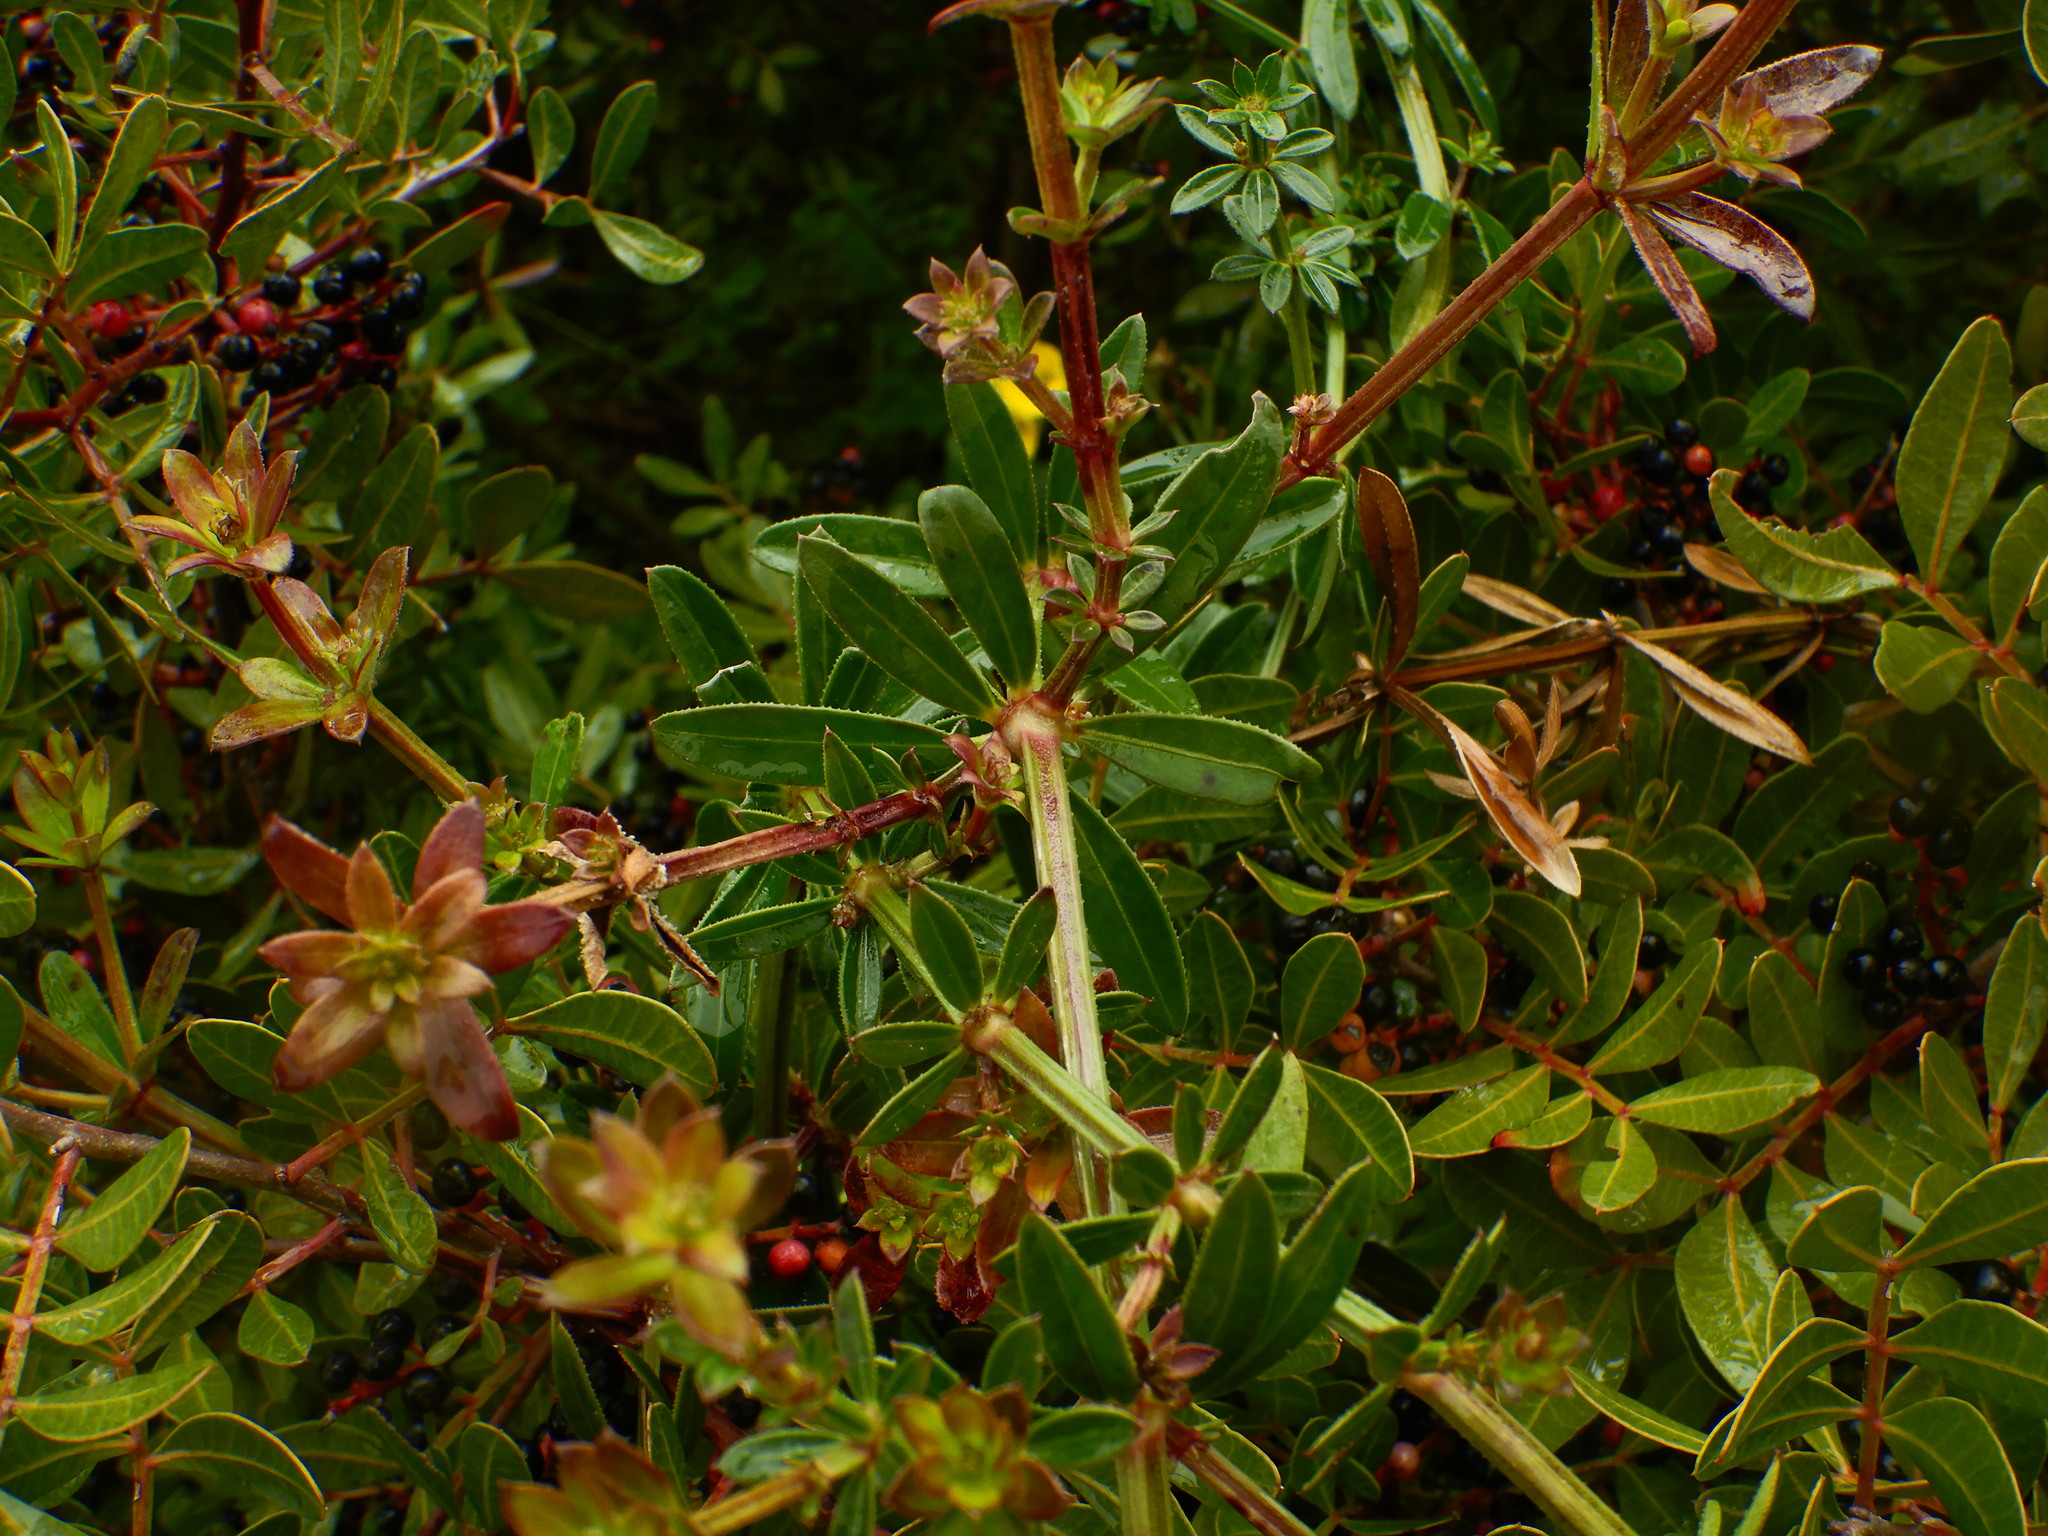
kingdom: Plantae
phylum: Tracheophyta
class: Magnoliopsida
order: Gentianales
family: Rubiaceae
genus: Rubia
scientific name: Rubia peregrina
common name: Wild madder
